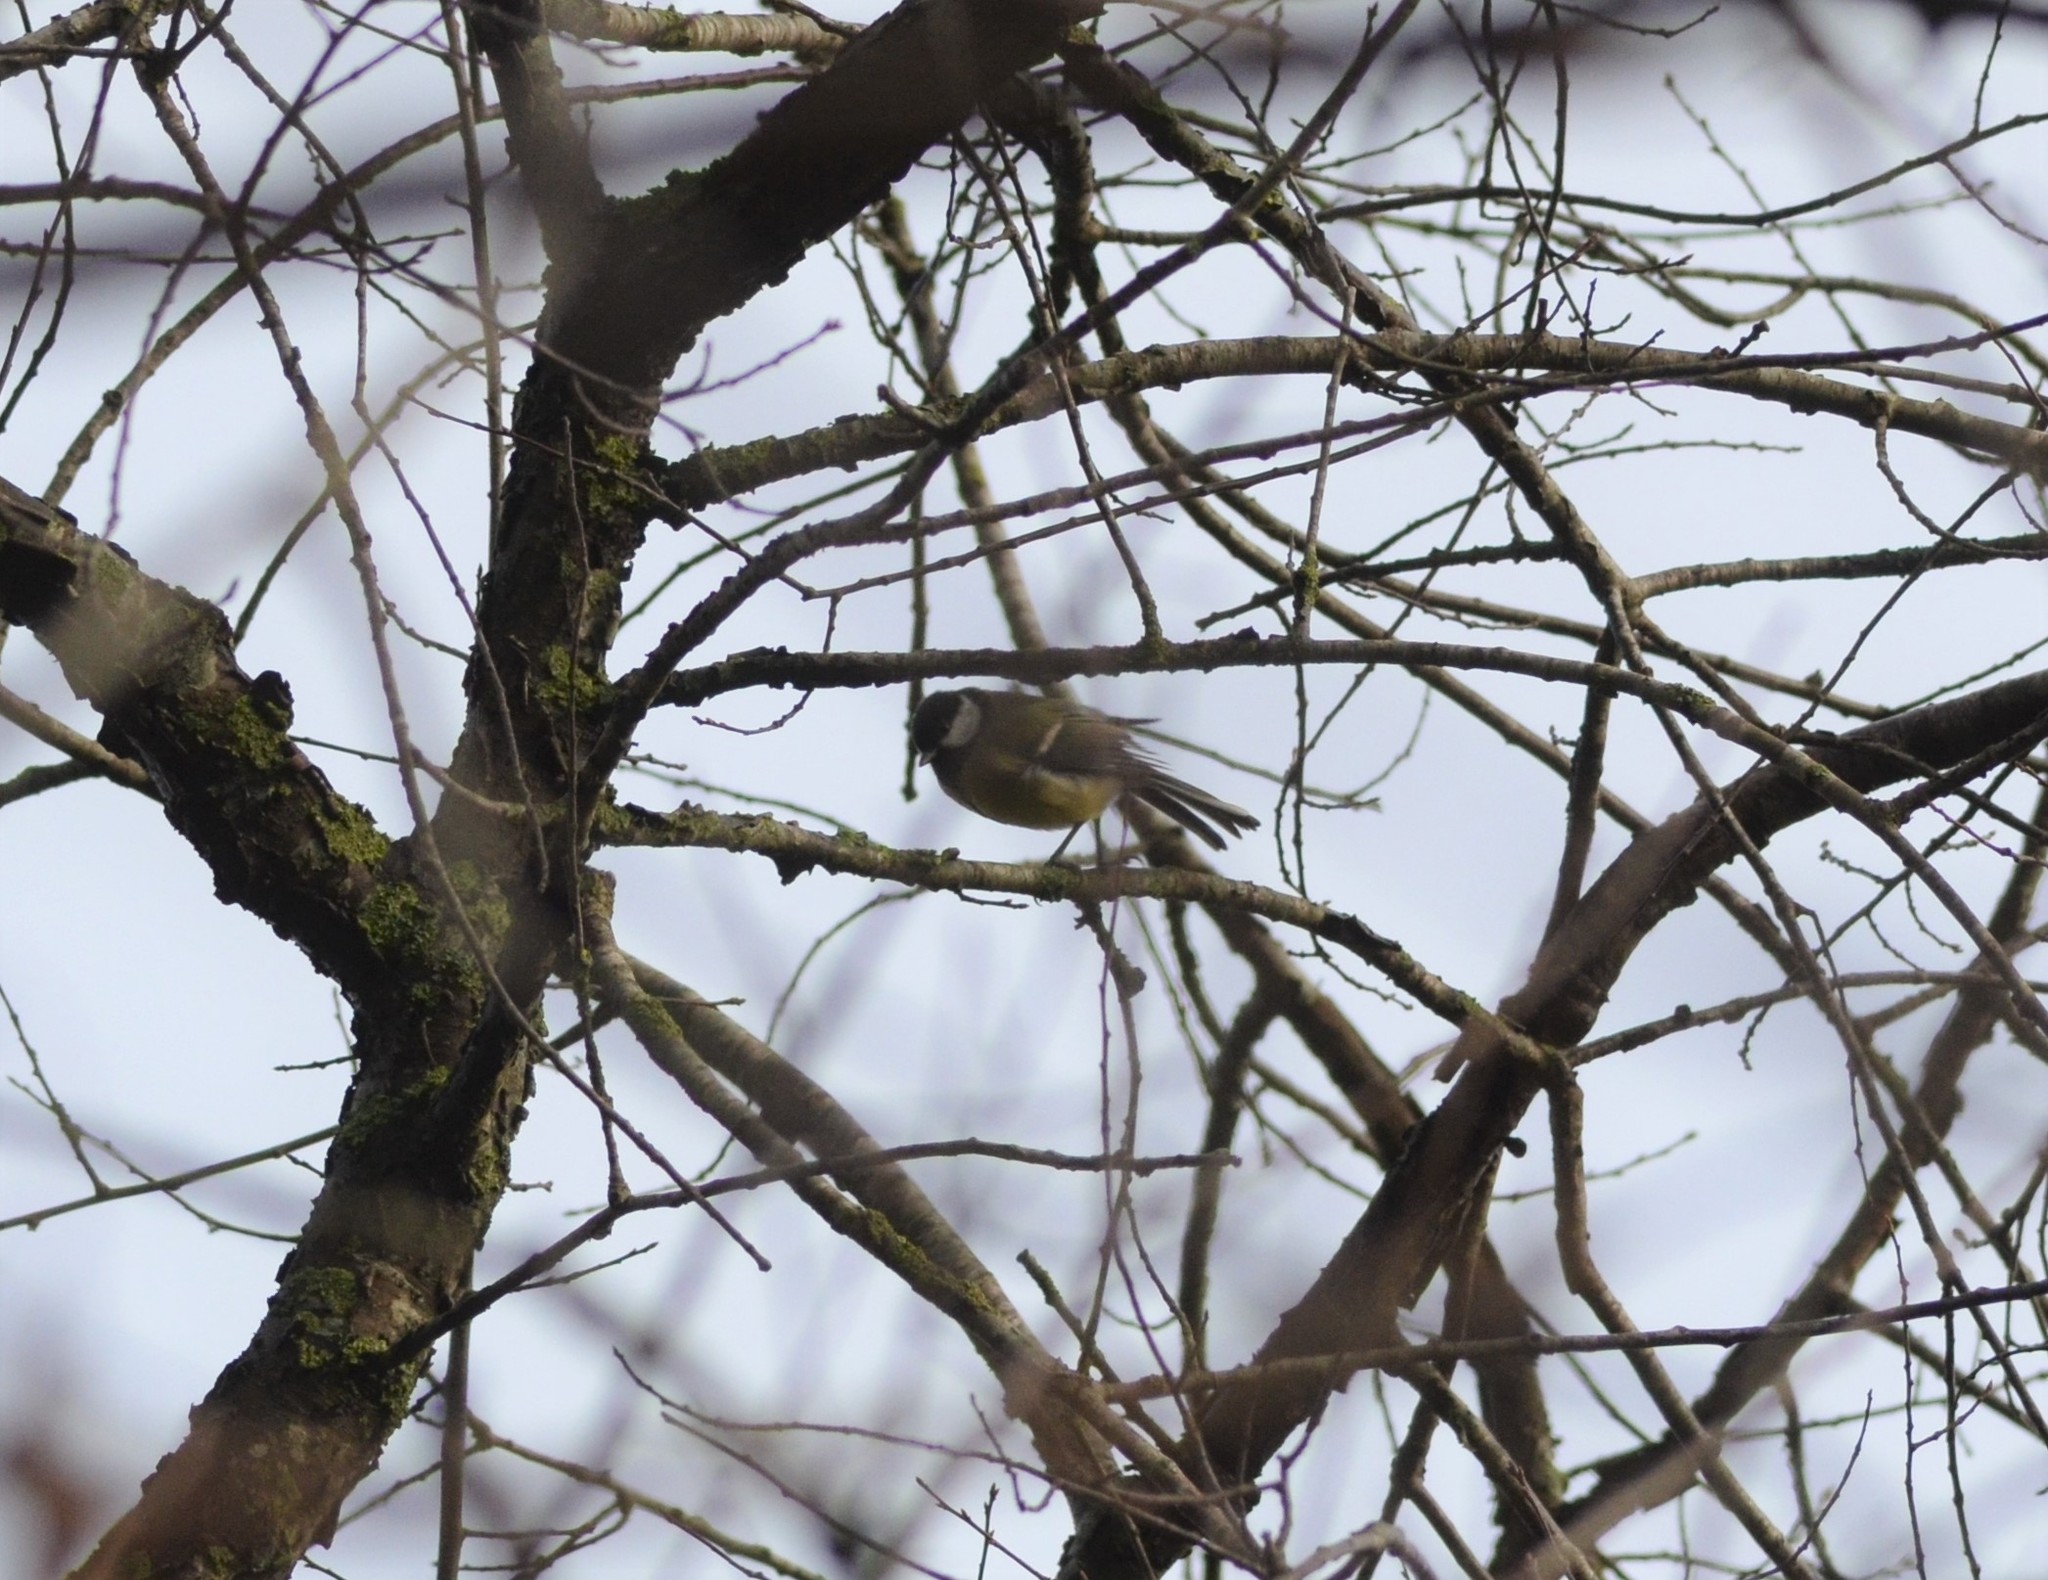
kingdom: Animalia
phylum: Chordata
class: Aves
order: Passeriformes
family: Paridae
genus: Parus
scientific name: Parus major
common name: Great tit
